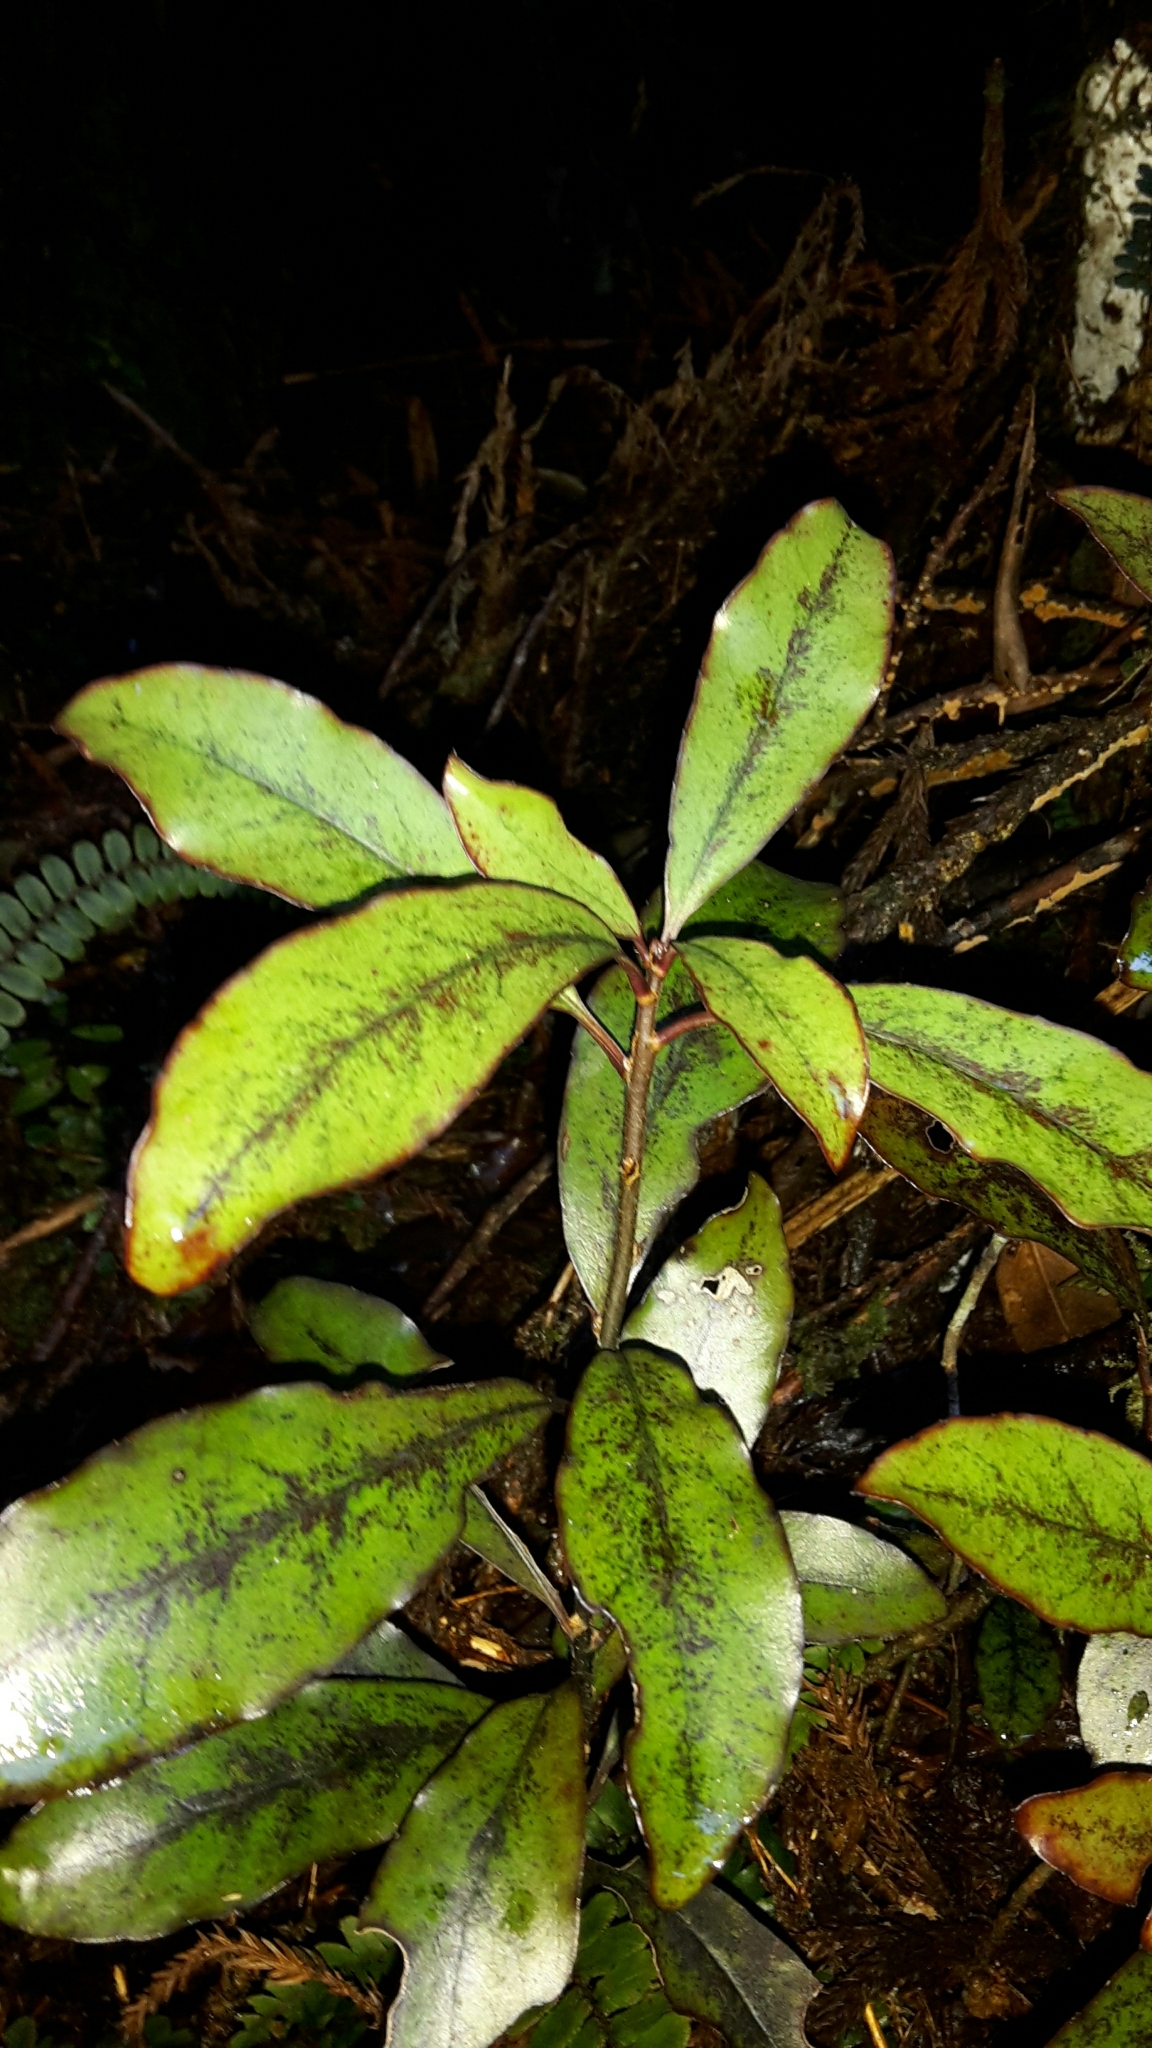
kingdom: Plantae
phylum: Tracheophyta
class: Magnoliopsida
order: Asterales
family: Alseuosmiaceae
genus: Alseuosmia
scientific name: Alseuosmia pusilla
